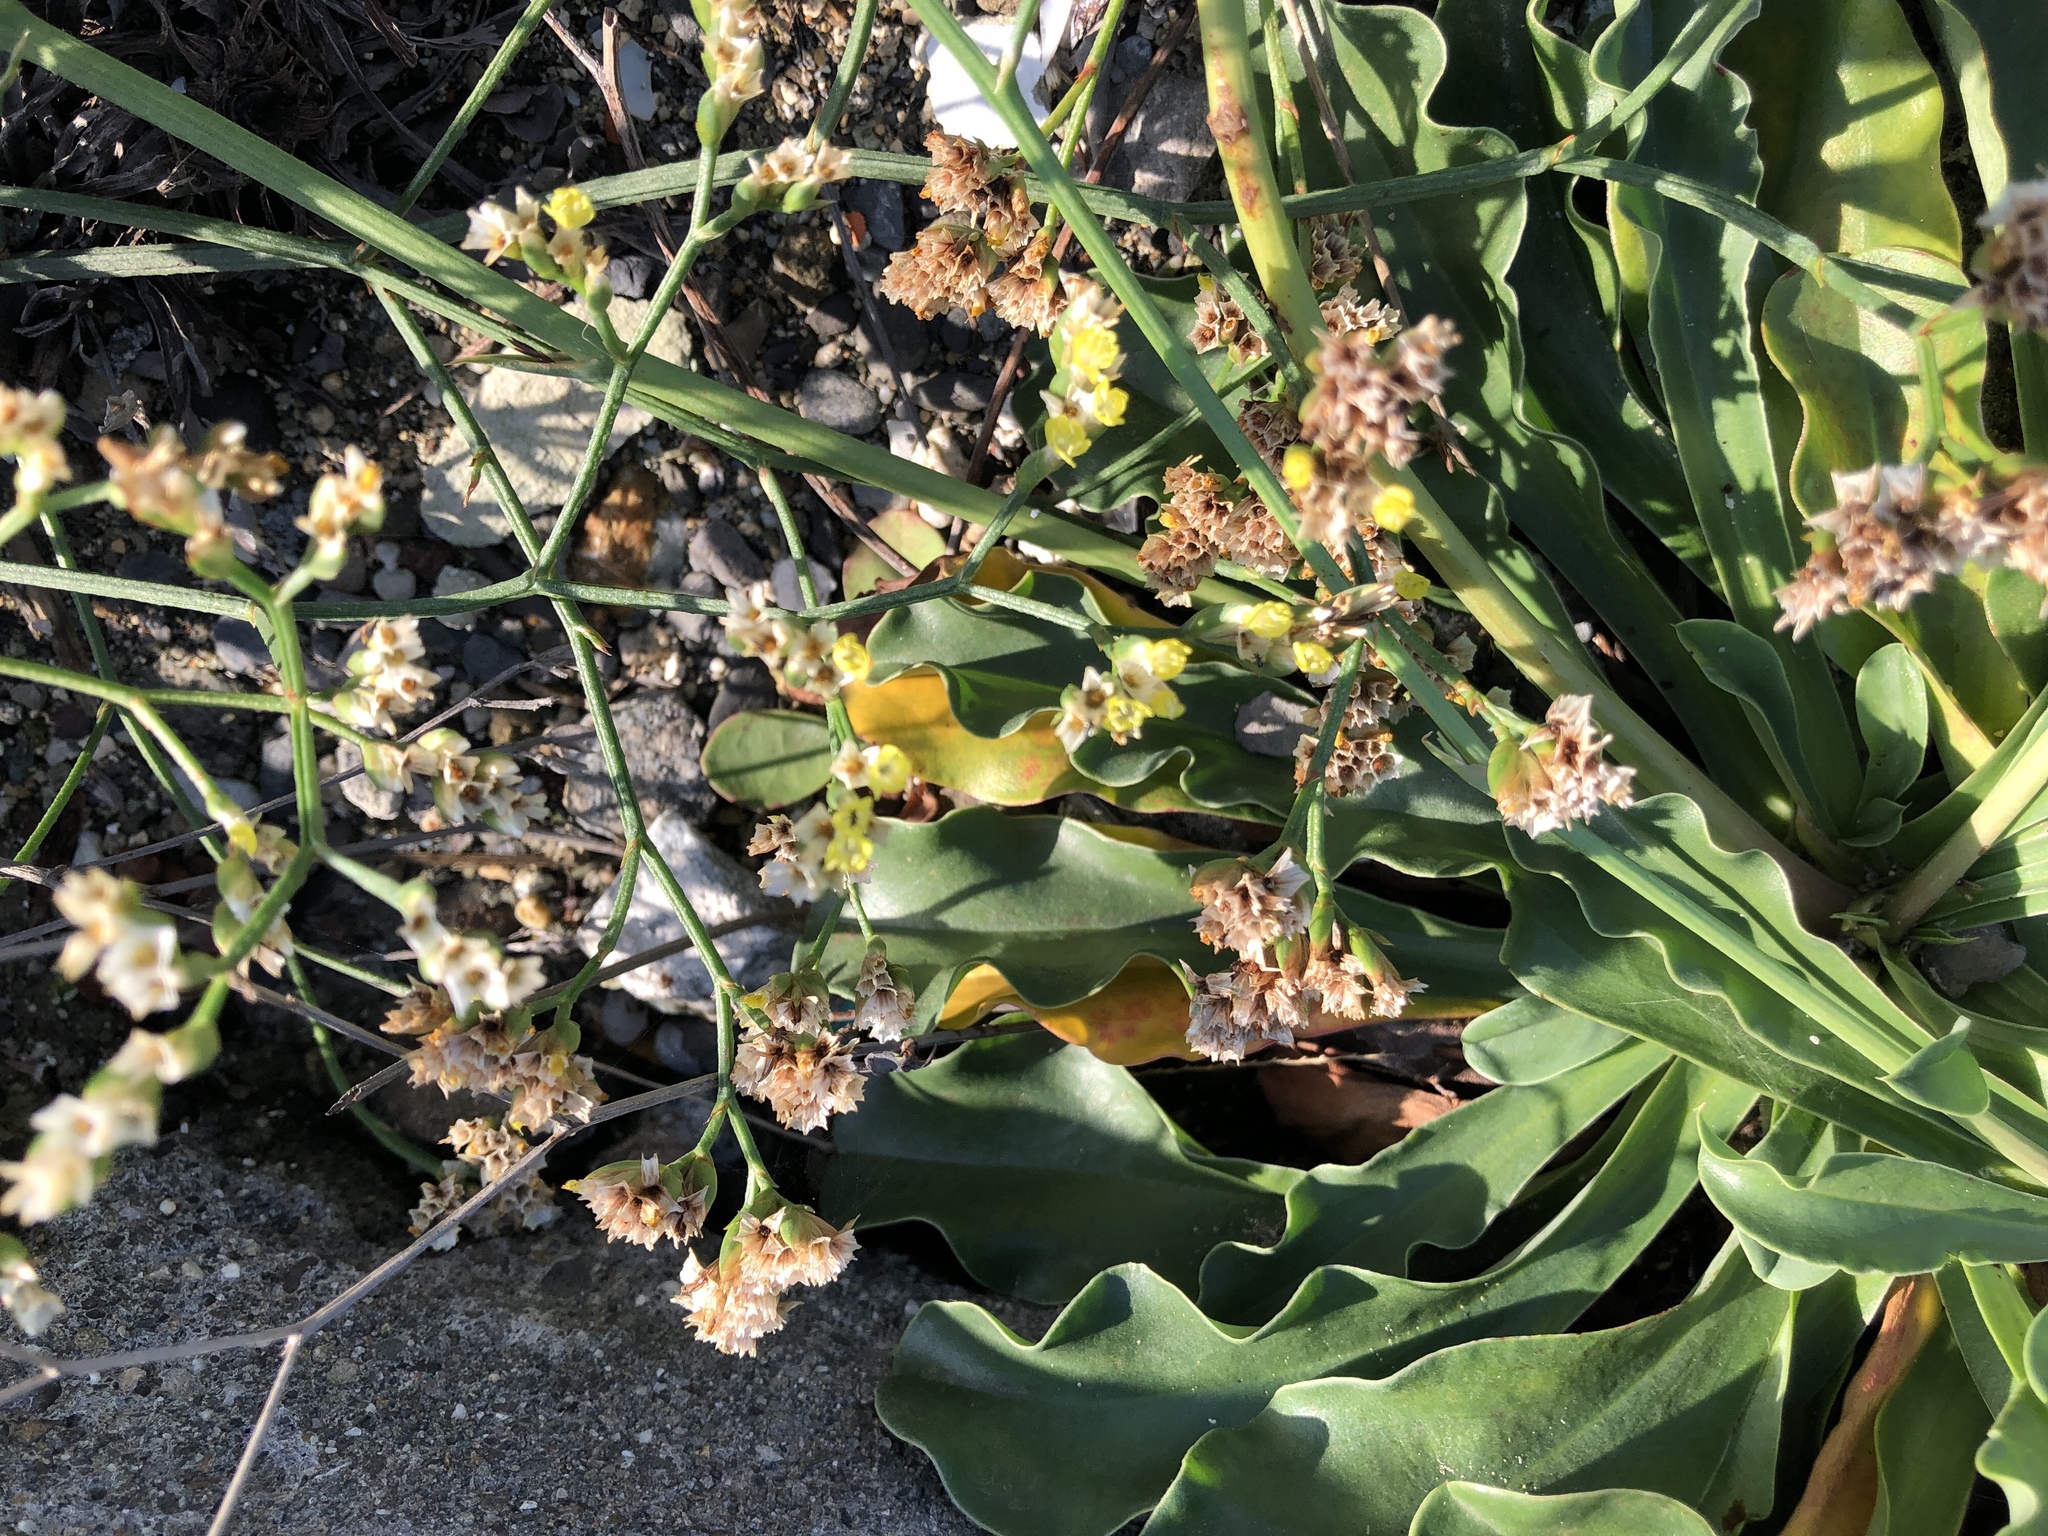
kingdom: Plantae
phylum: Tracheophyta
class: Magnoliopsida
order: Caryophyllales
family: Plumbaginaceae
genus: Limonium
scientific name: Limonium sinense
